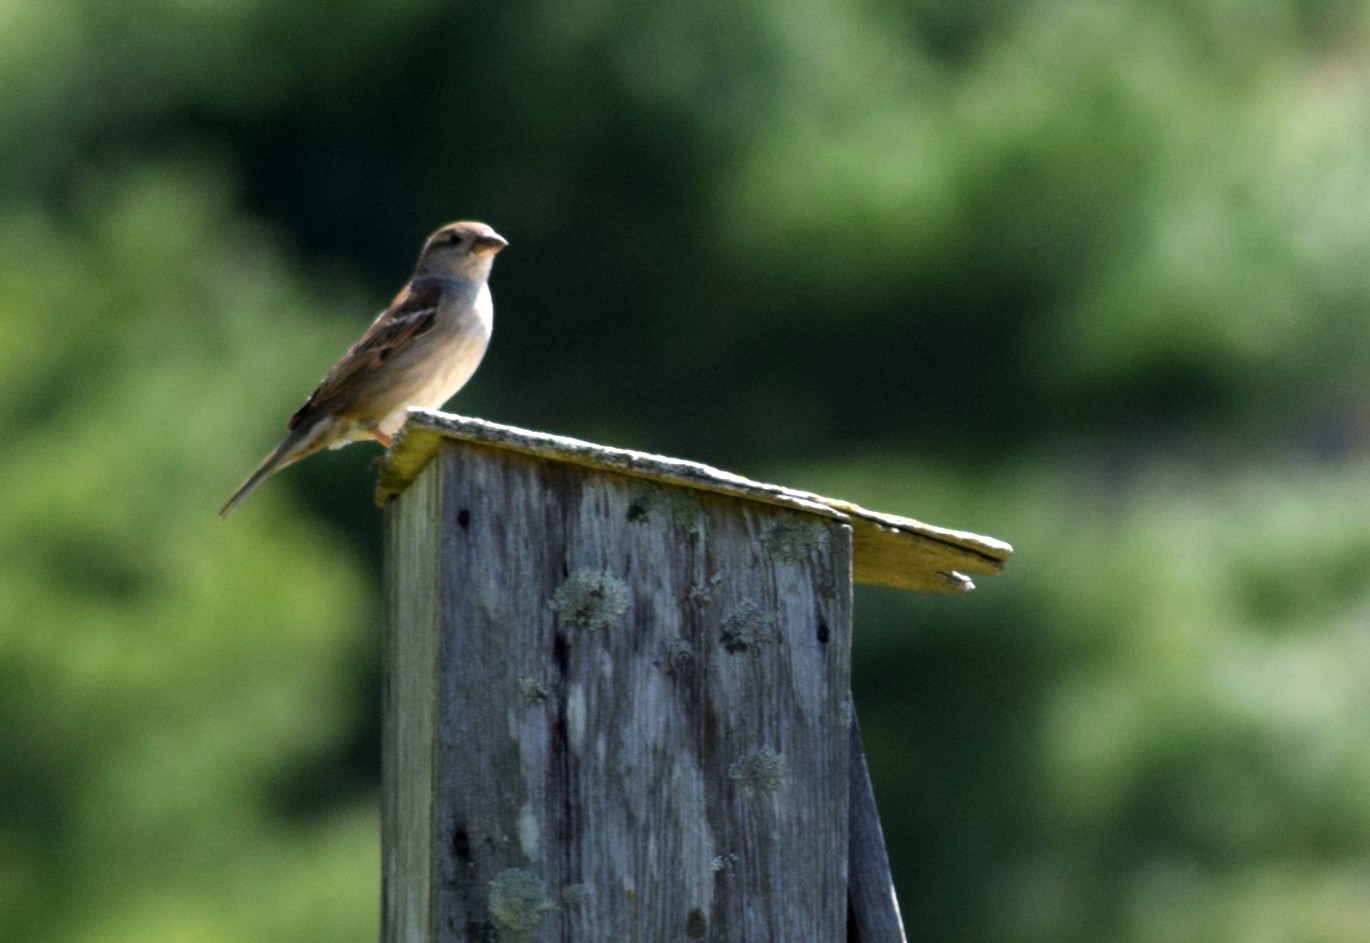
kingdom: Animalia
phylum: Chordata
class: Aves
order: Passeriformes
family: Passeridae
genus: Passer
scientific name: Passer domesticus
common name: House sparrow
